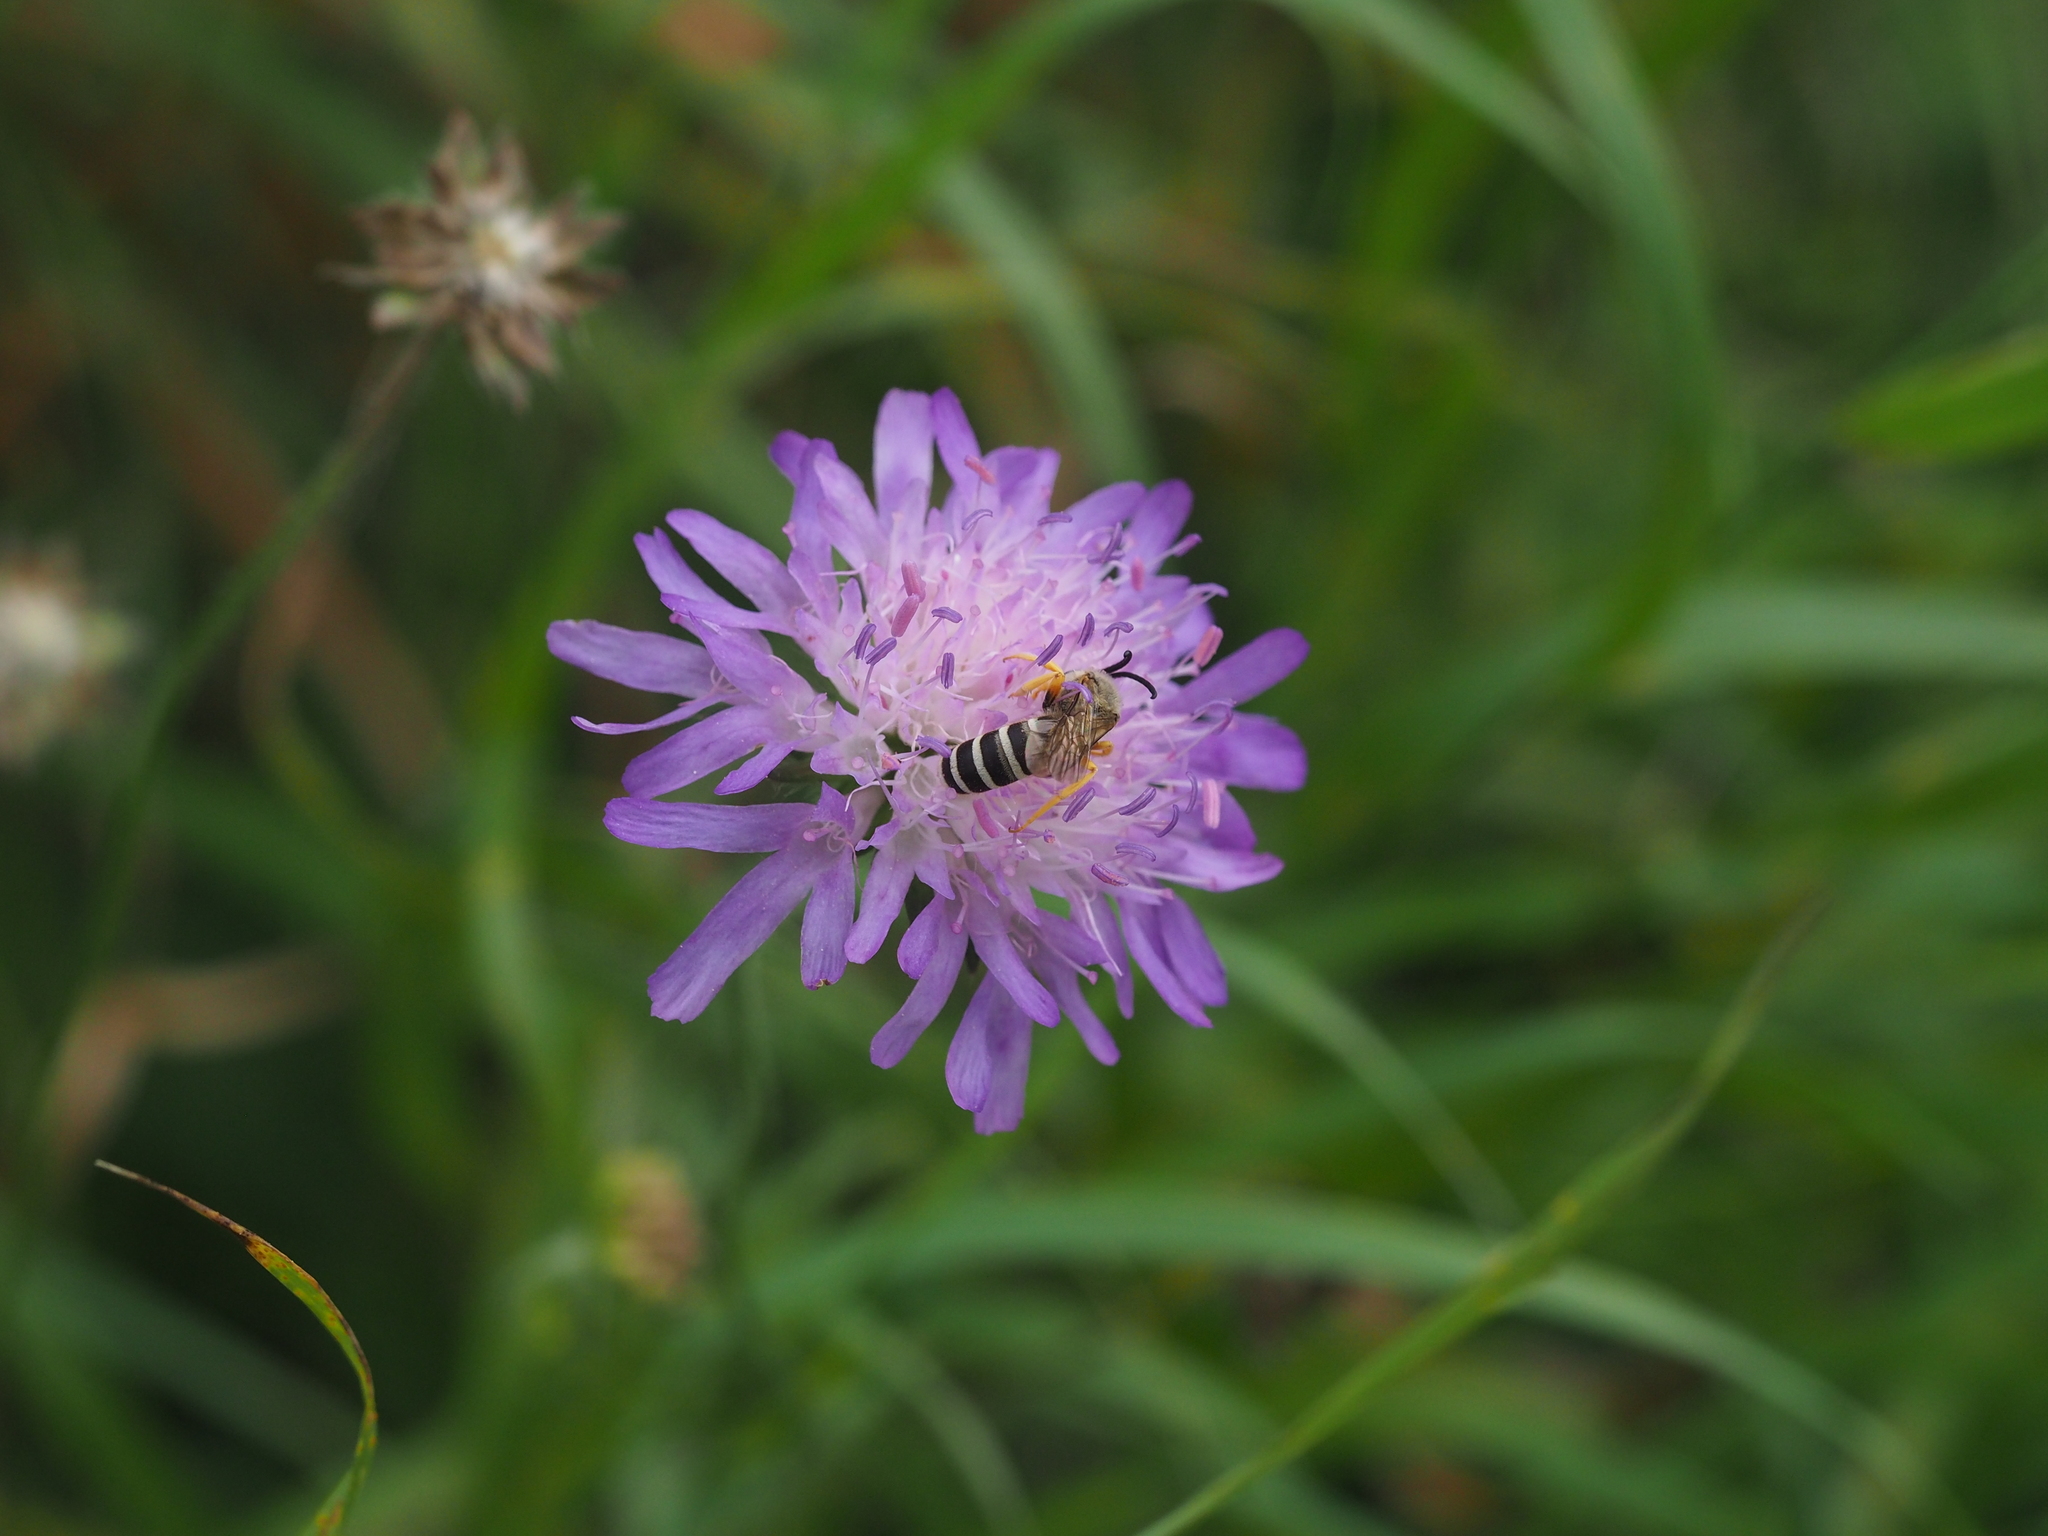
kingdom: Animalia
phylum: Arthropoda
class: Insecta
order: Hymenoptera
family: Halictidae
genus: Halictus
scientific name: Halictus scabiosae
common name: Great banded furrow bee
